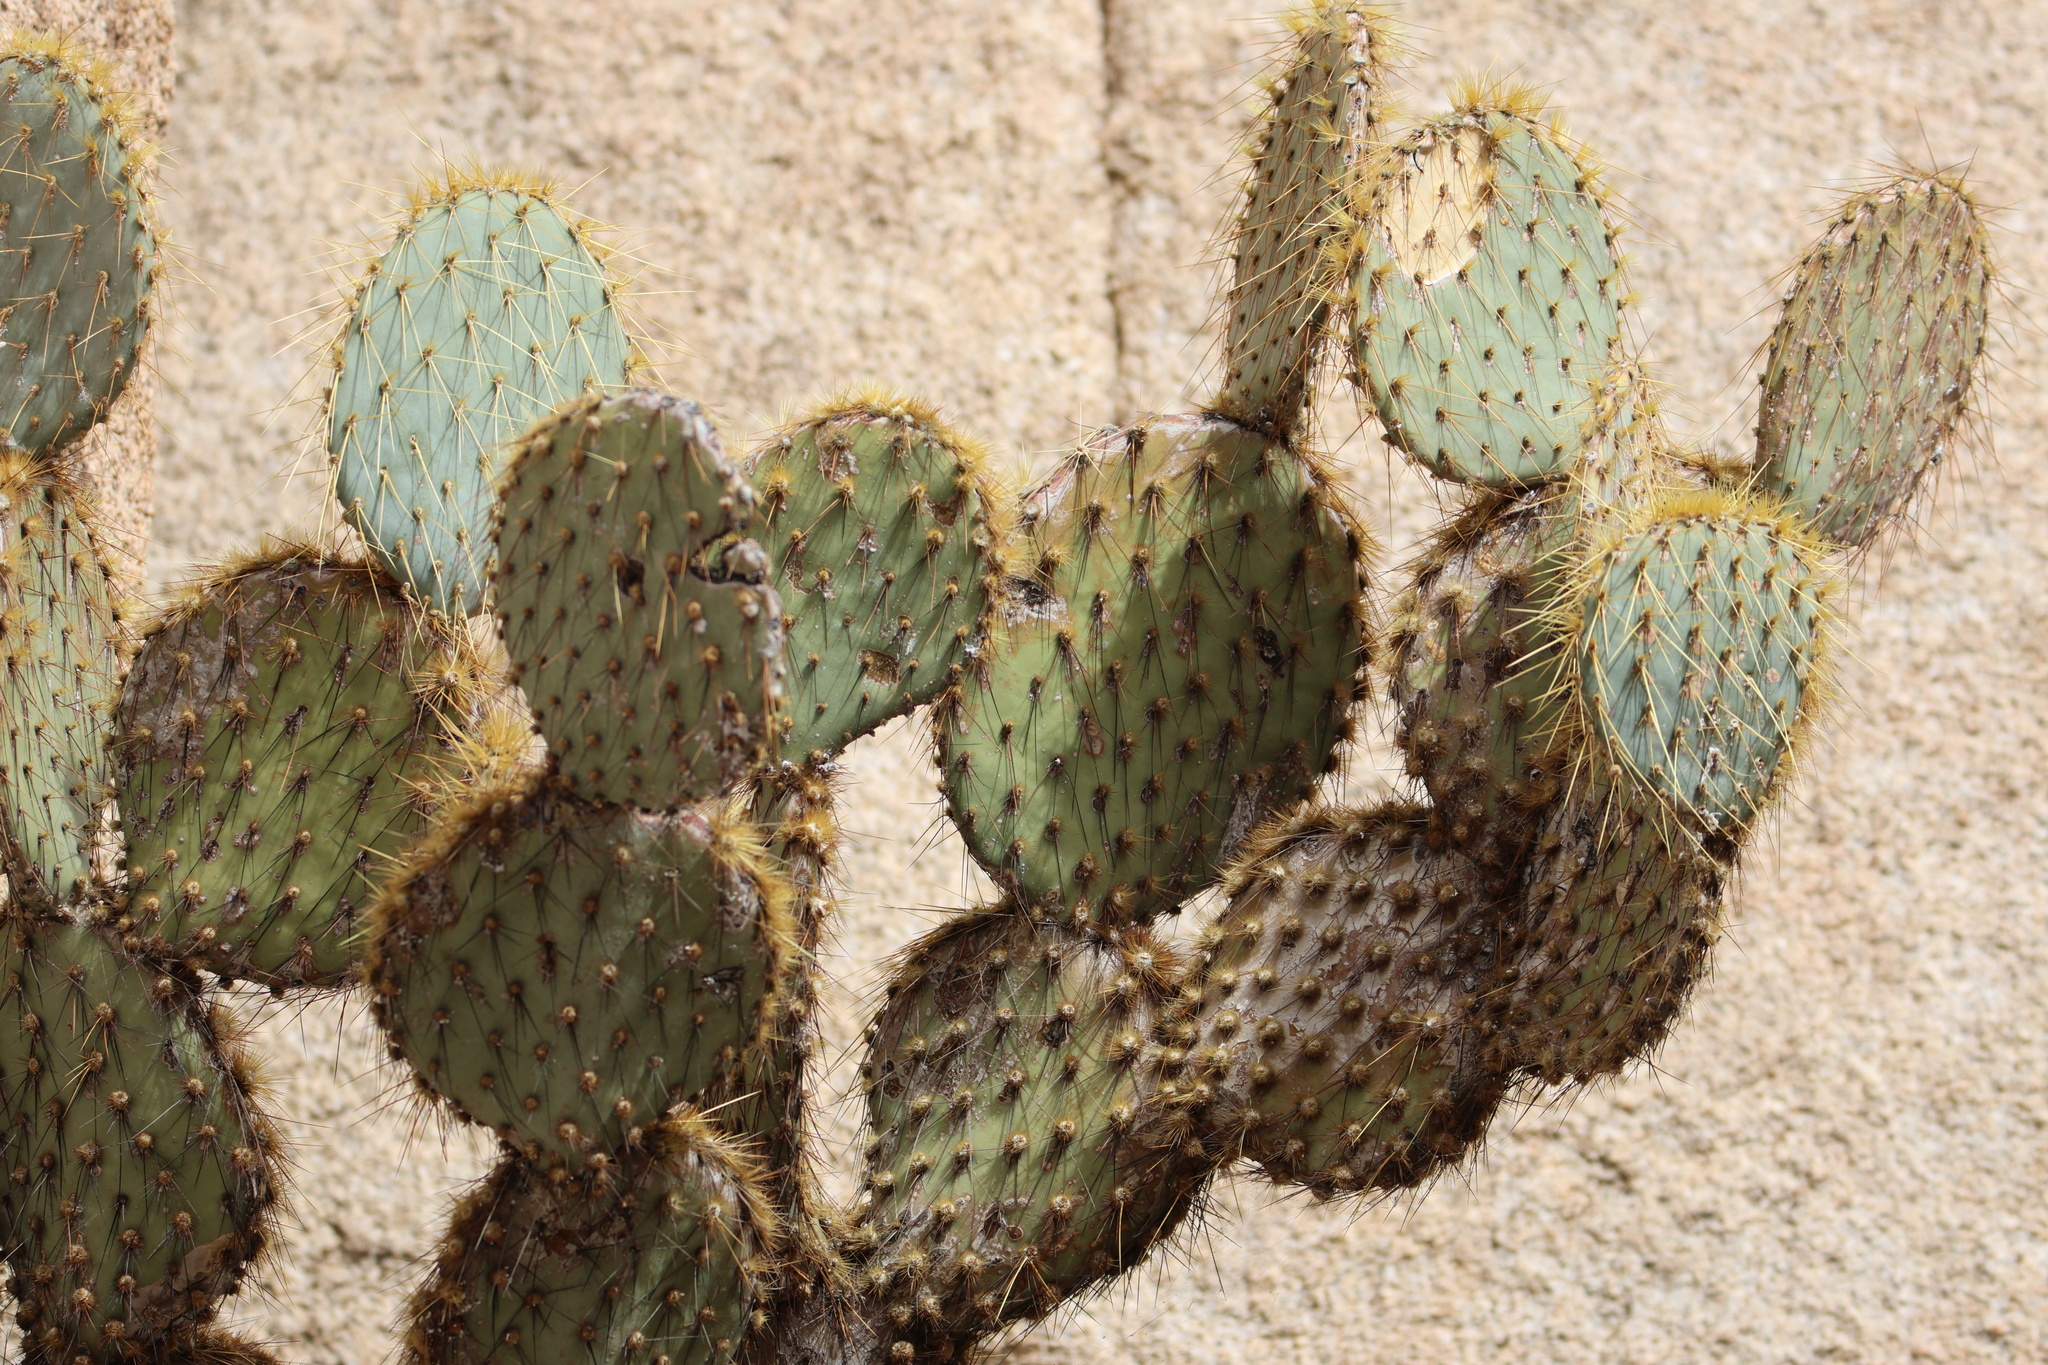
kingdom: Plantae
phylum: Tracheophyta
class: Magnoliopsida
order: Caryophyllales
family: Cactaceae
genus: Opuntia
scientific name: Opuntia chlorotica
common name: Dollar-joint prickly-pear
